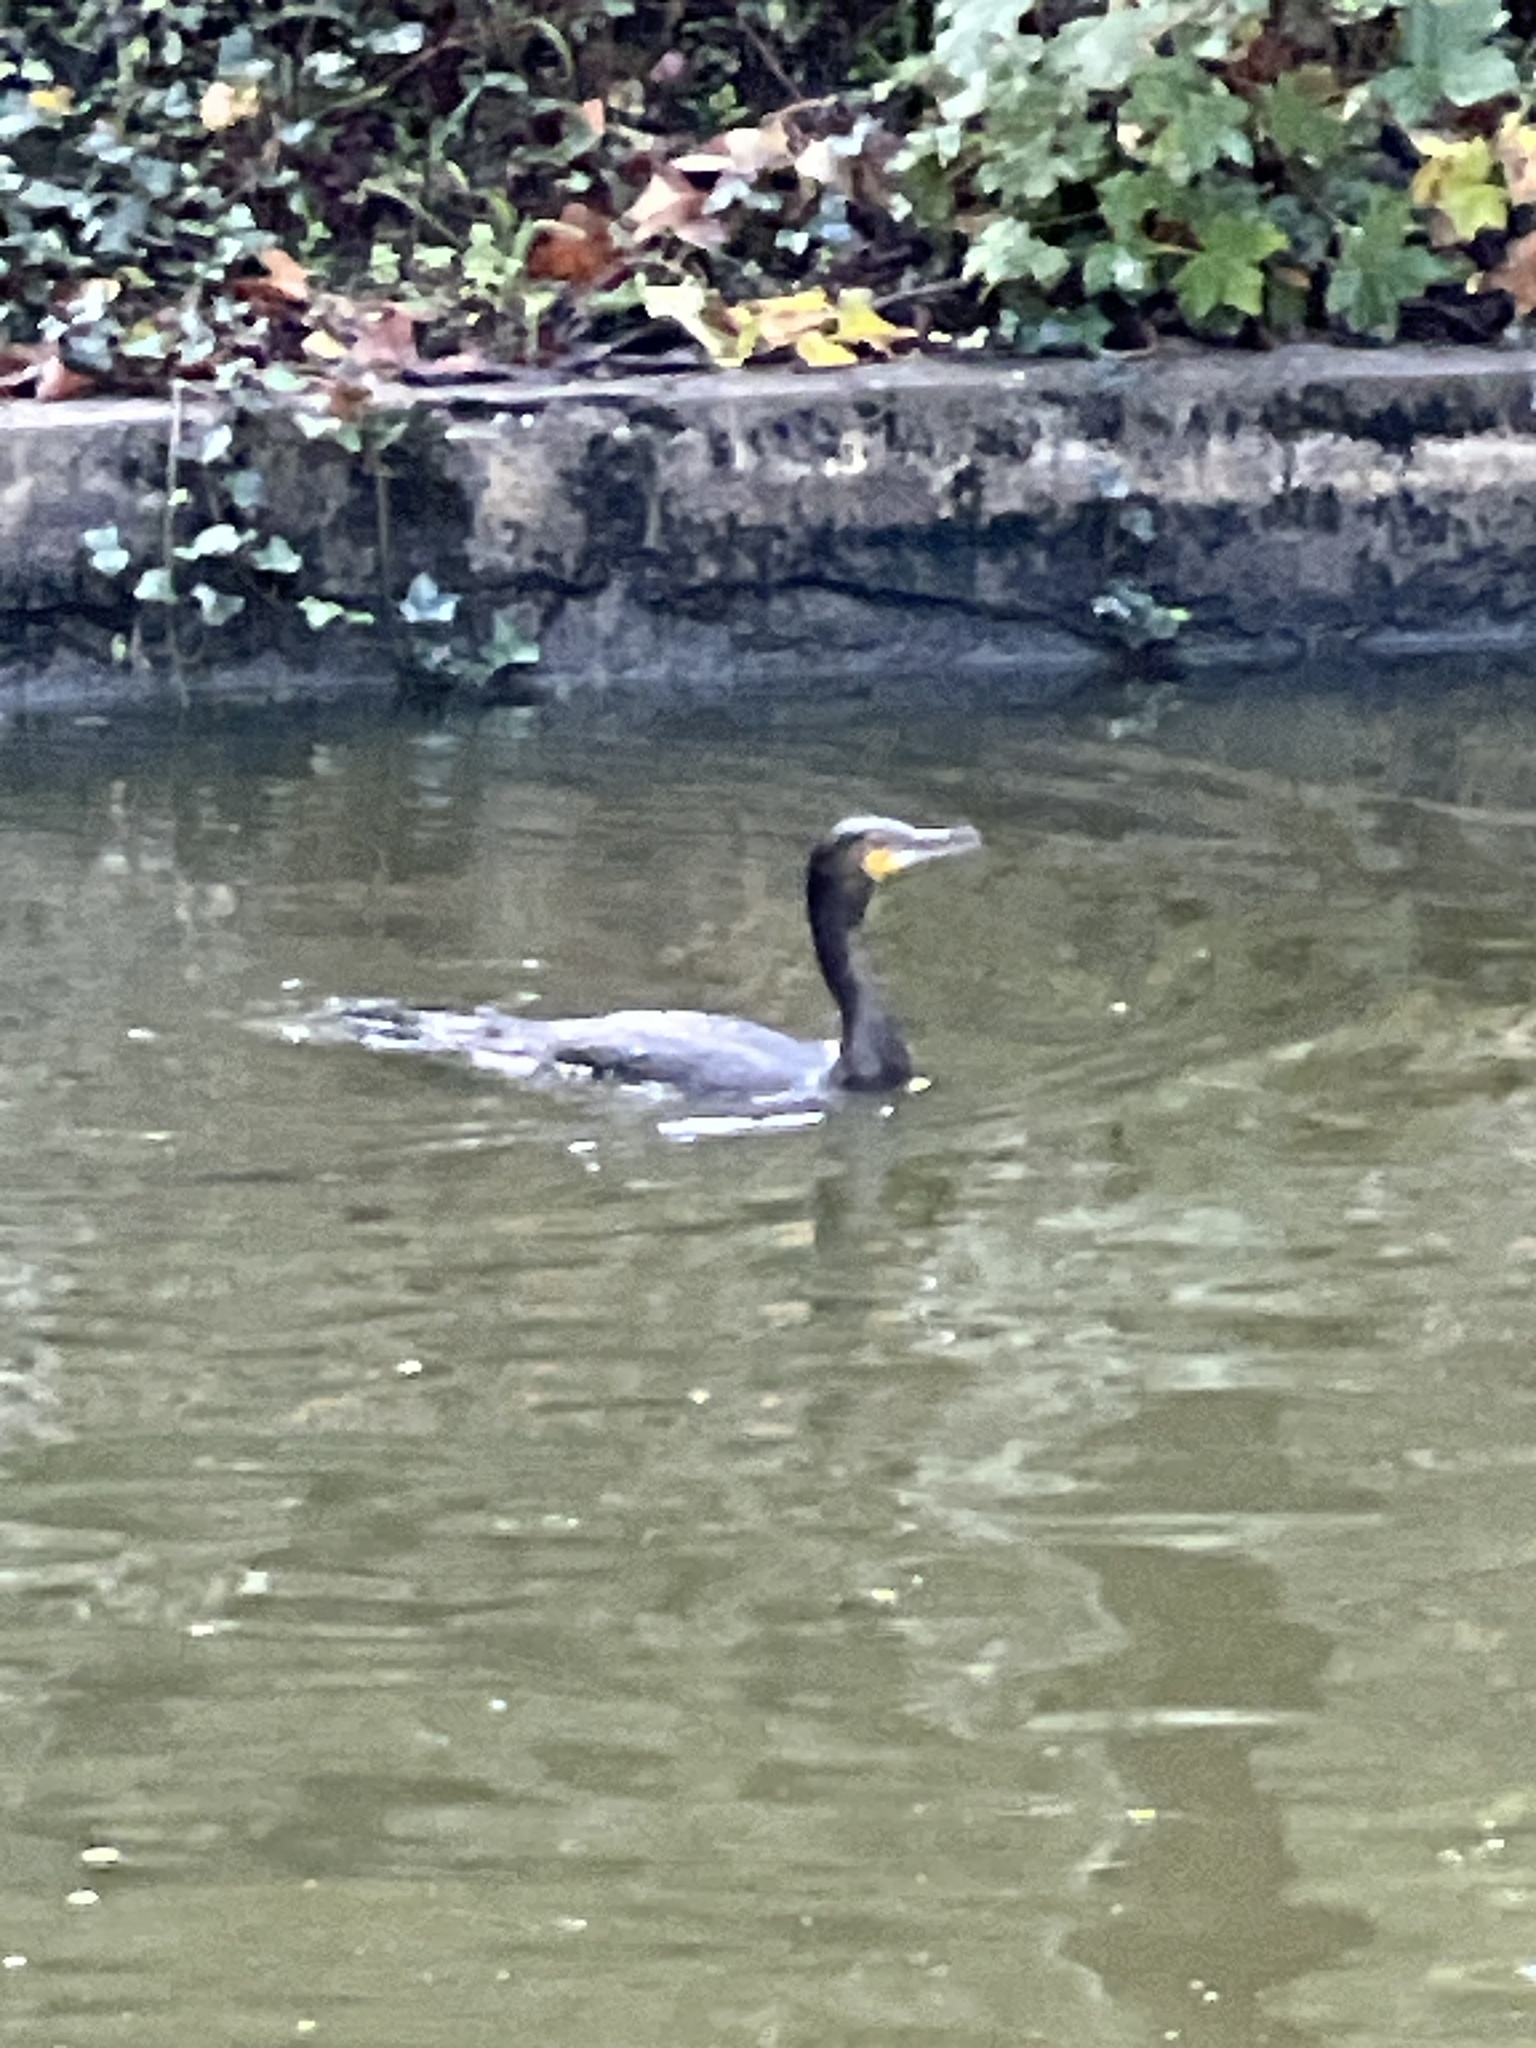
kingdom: Animalia
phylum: Chordata
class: Aves
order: Suliformes
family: Phalacrocoracidae
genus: Phalacrocorax
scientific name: Phalacrocorax carbo
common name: Great cormorant
